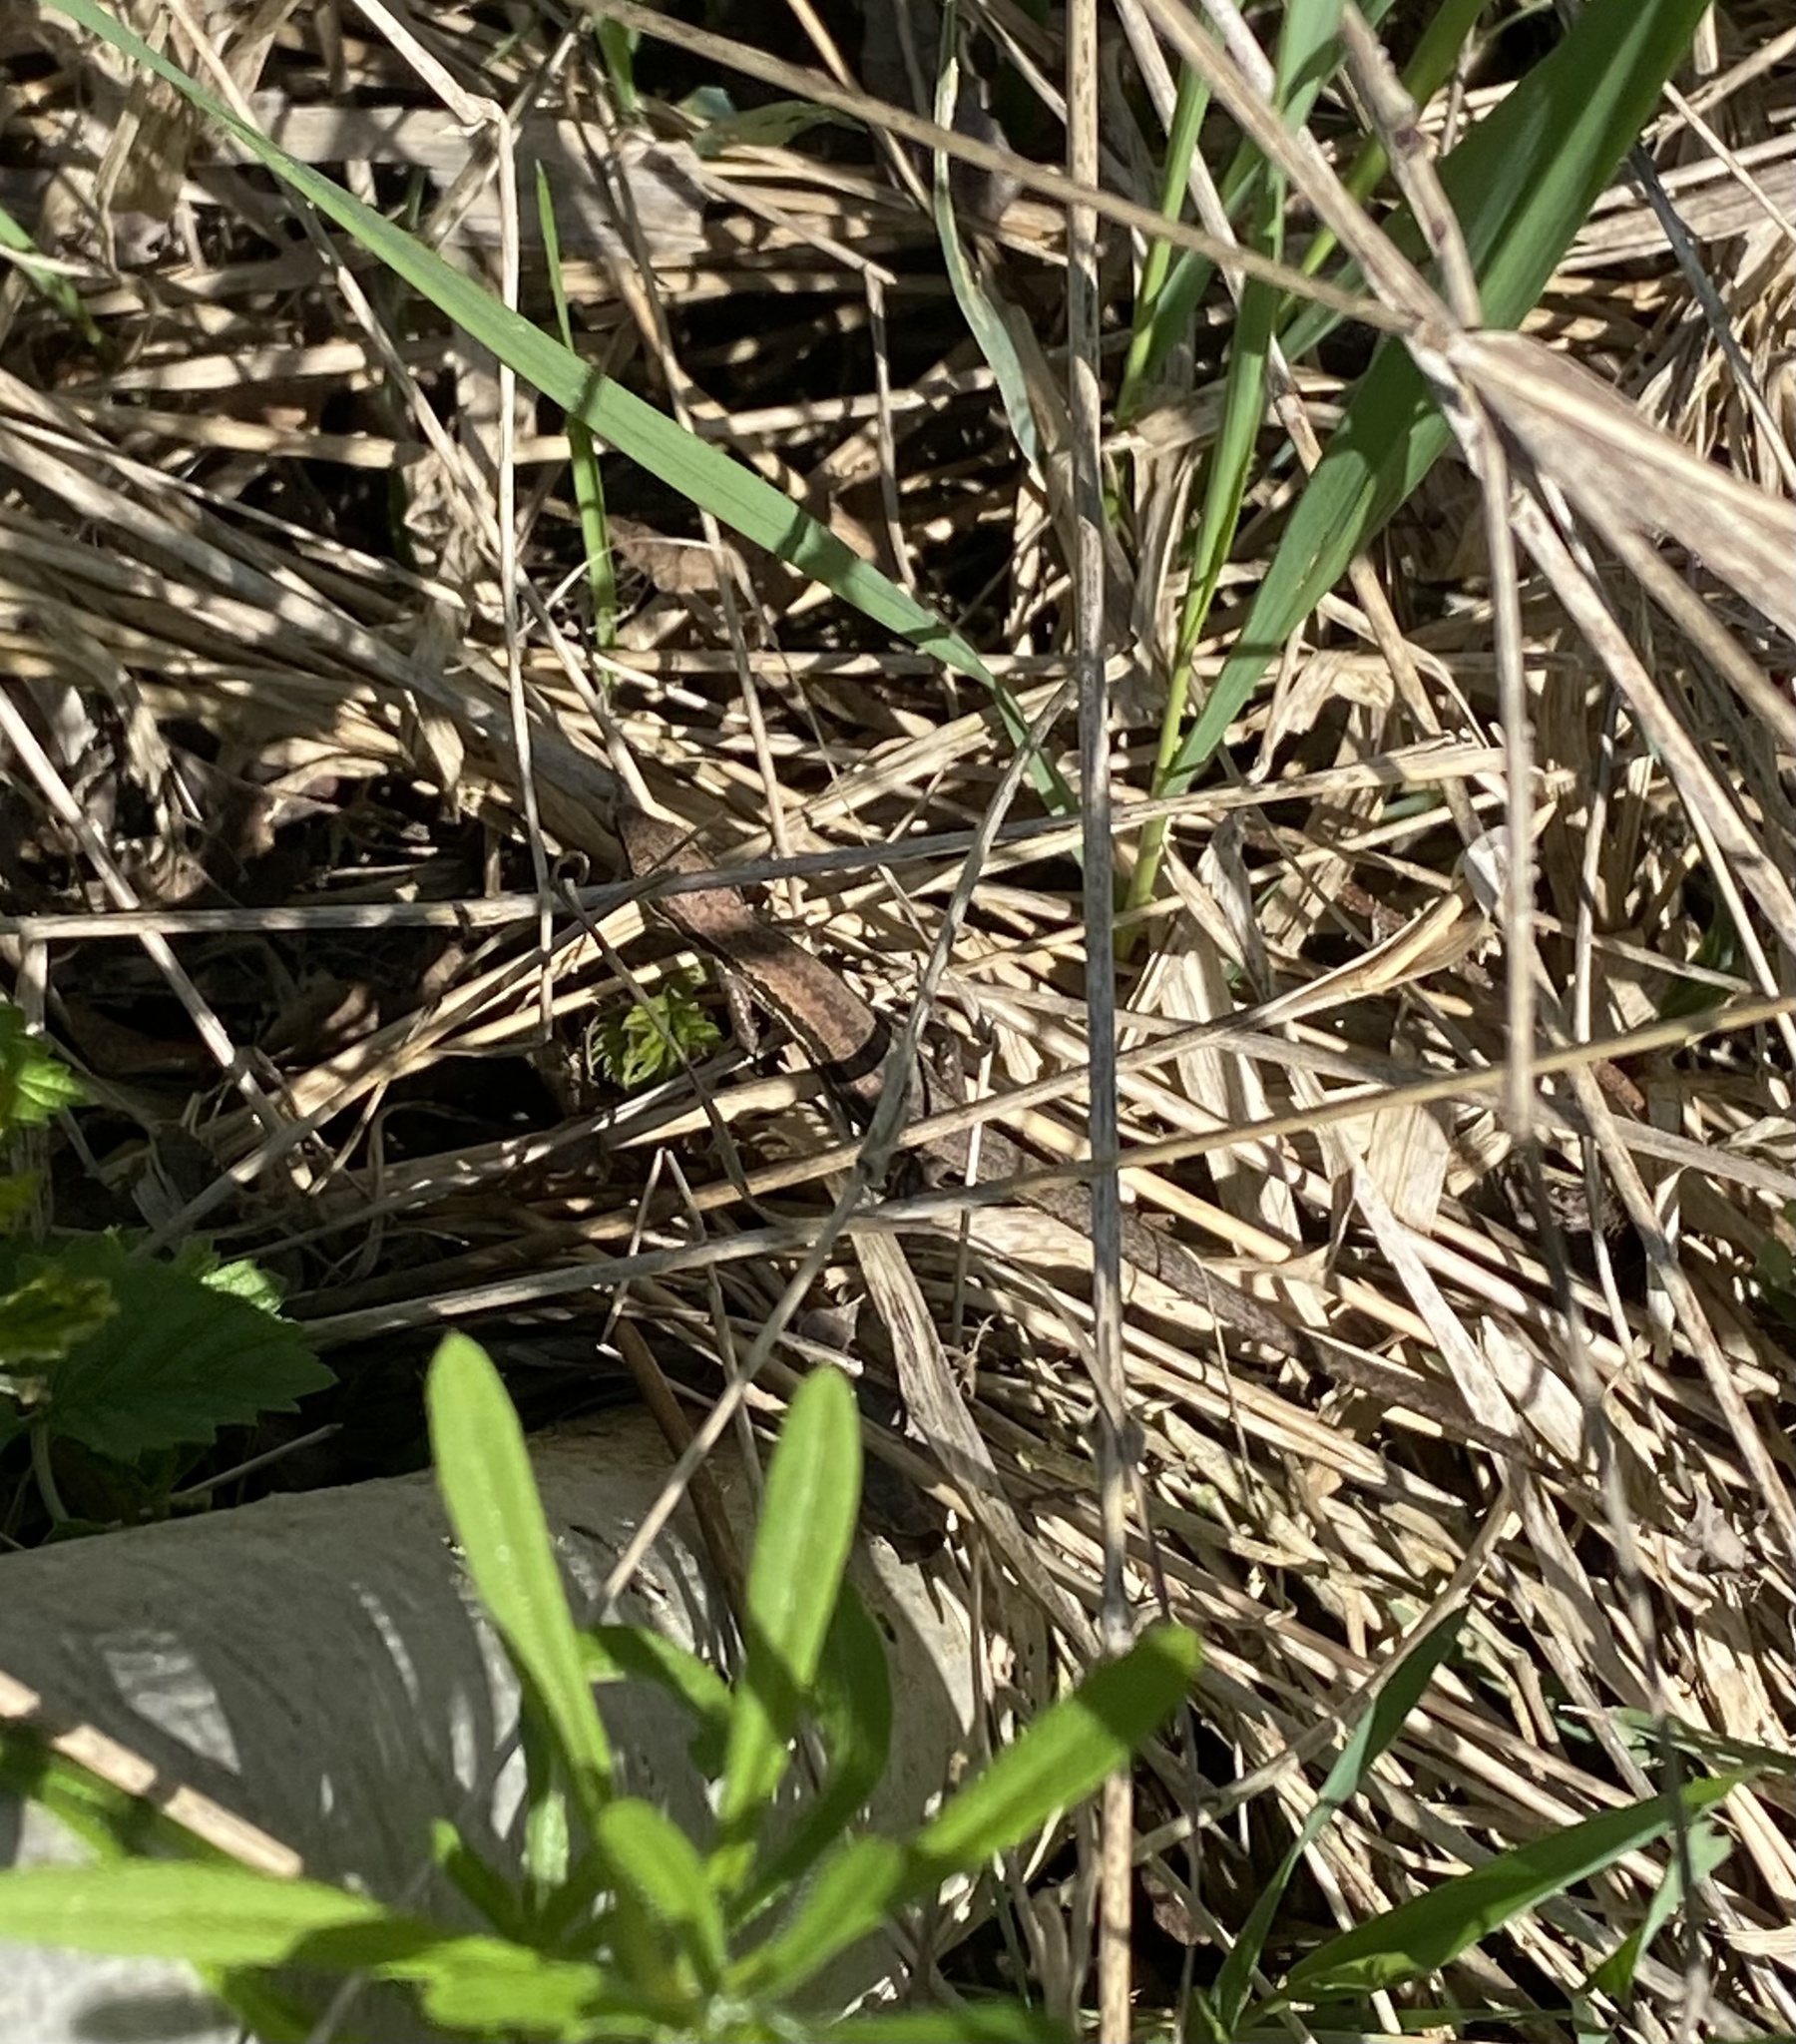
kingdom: Animalia
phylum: Chordata
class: Squamata
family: Lacertidae
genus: Darevskia
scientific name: Darevskia praticola
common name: Meadow lizard
